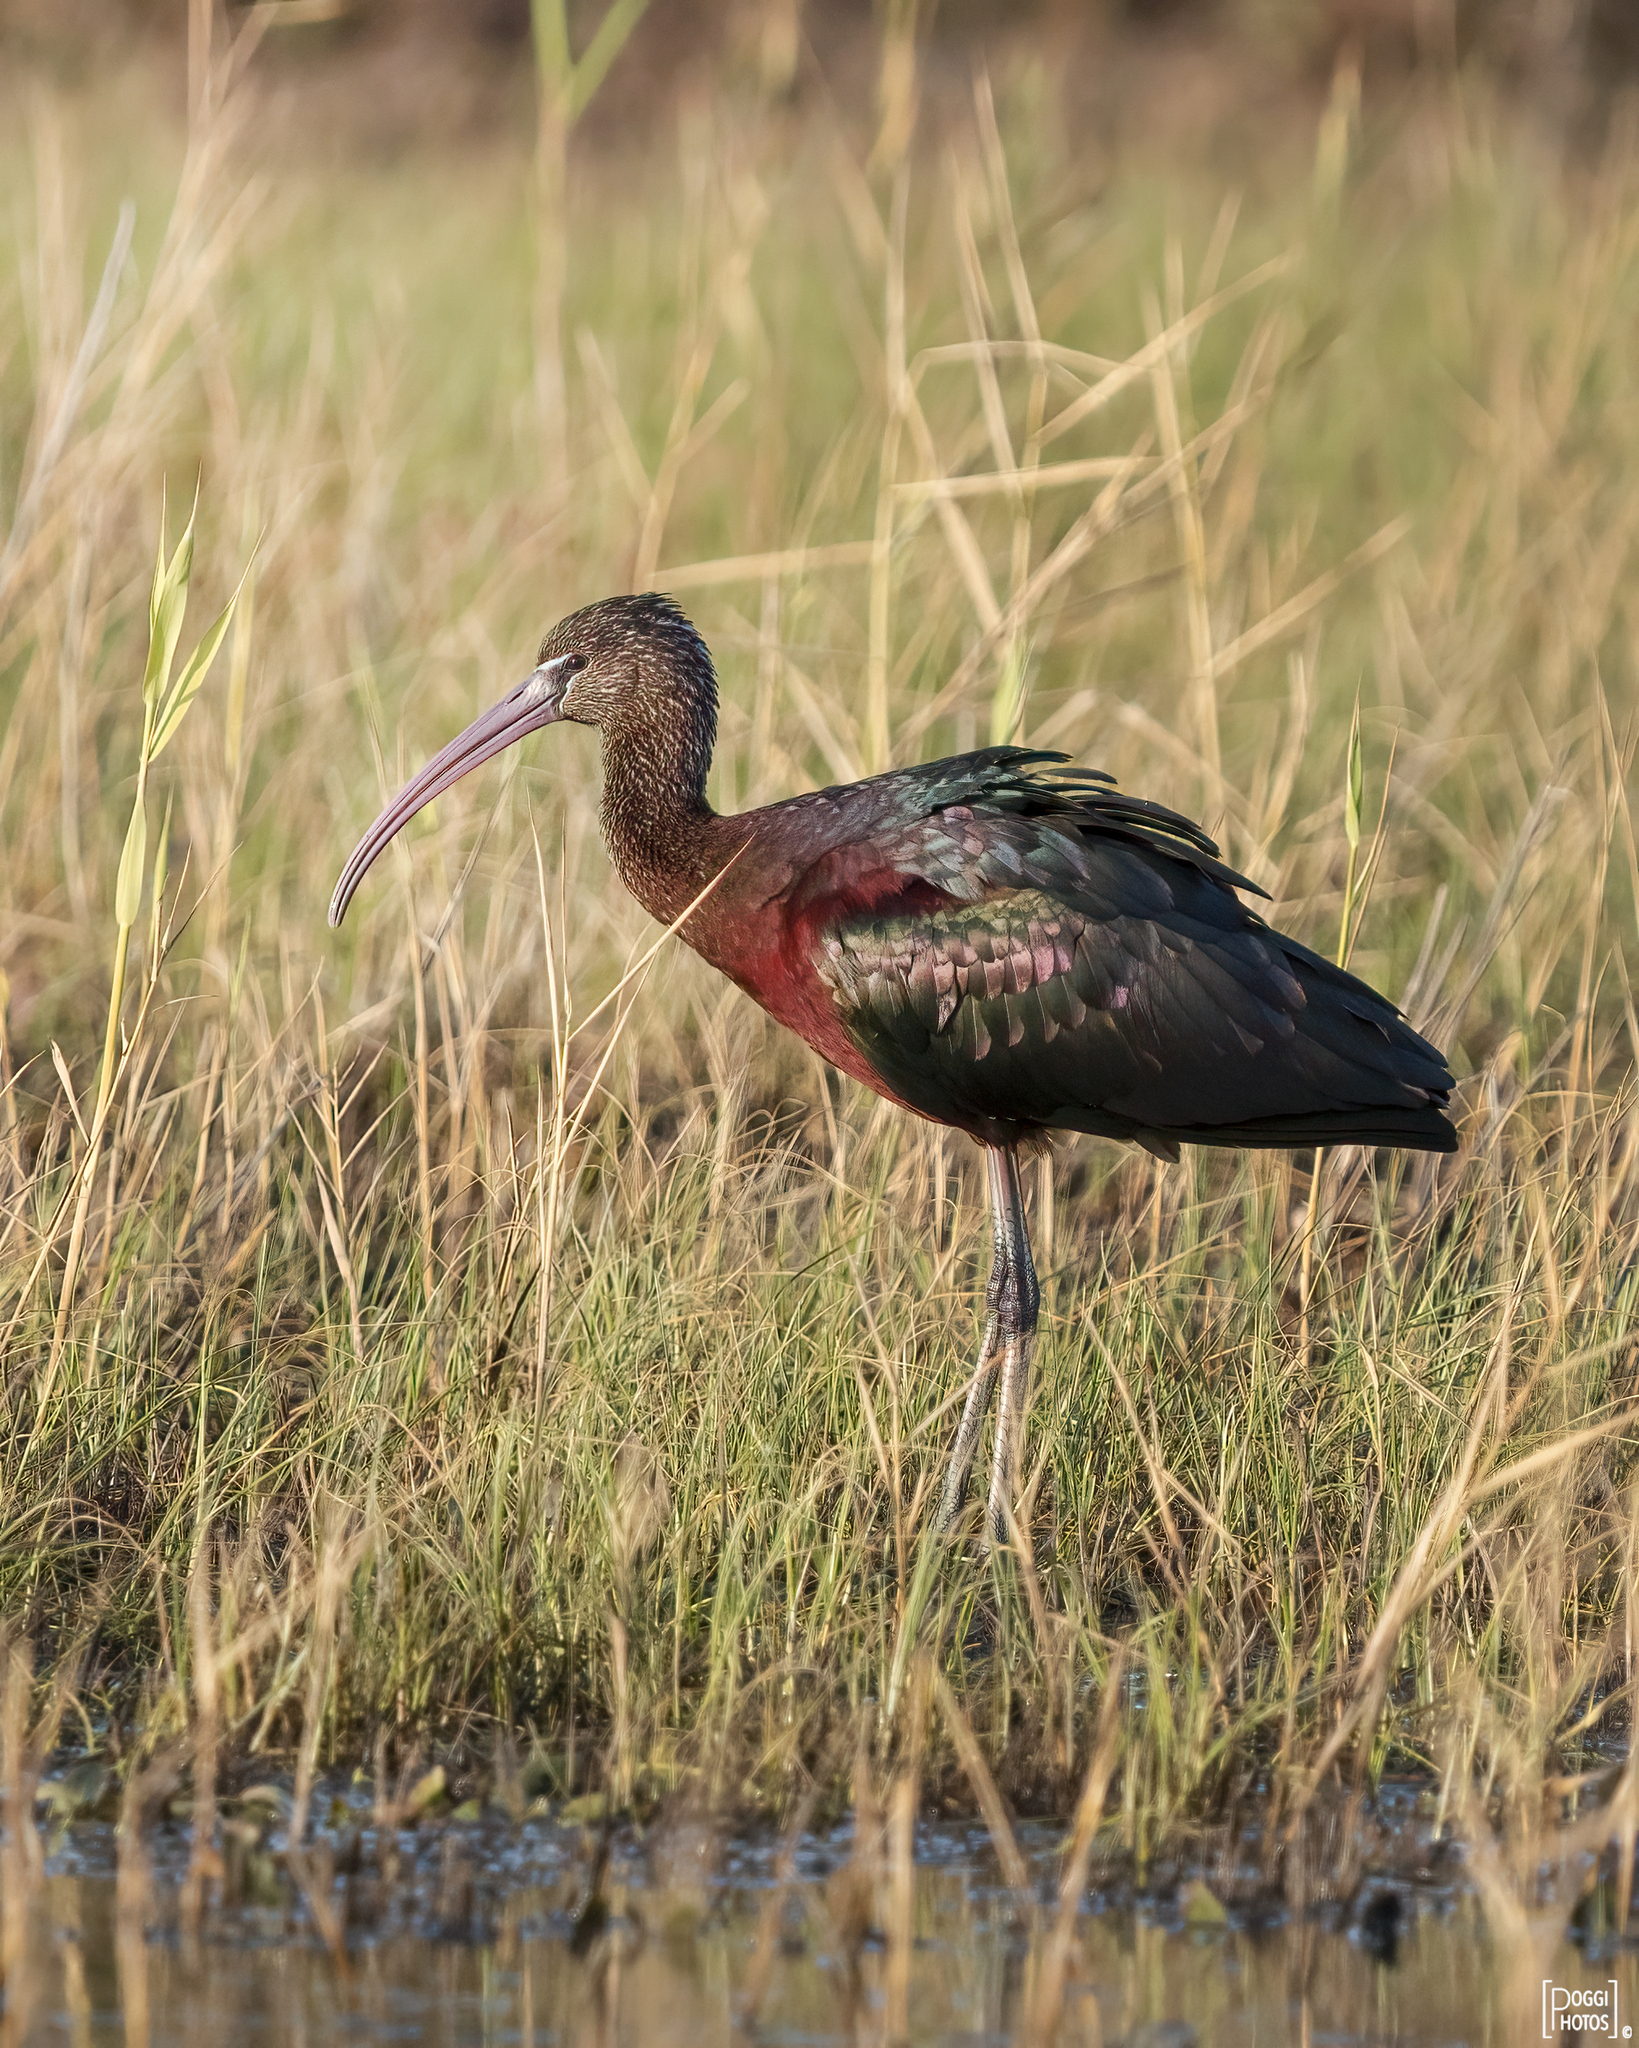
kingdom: Animalia
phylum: Chordata
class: Aves
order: Pelecaniformes
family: Threskiornithidae
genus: Plegadis
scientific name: Plegadis falcinellus
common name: Glossy ibis
